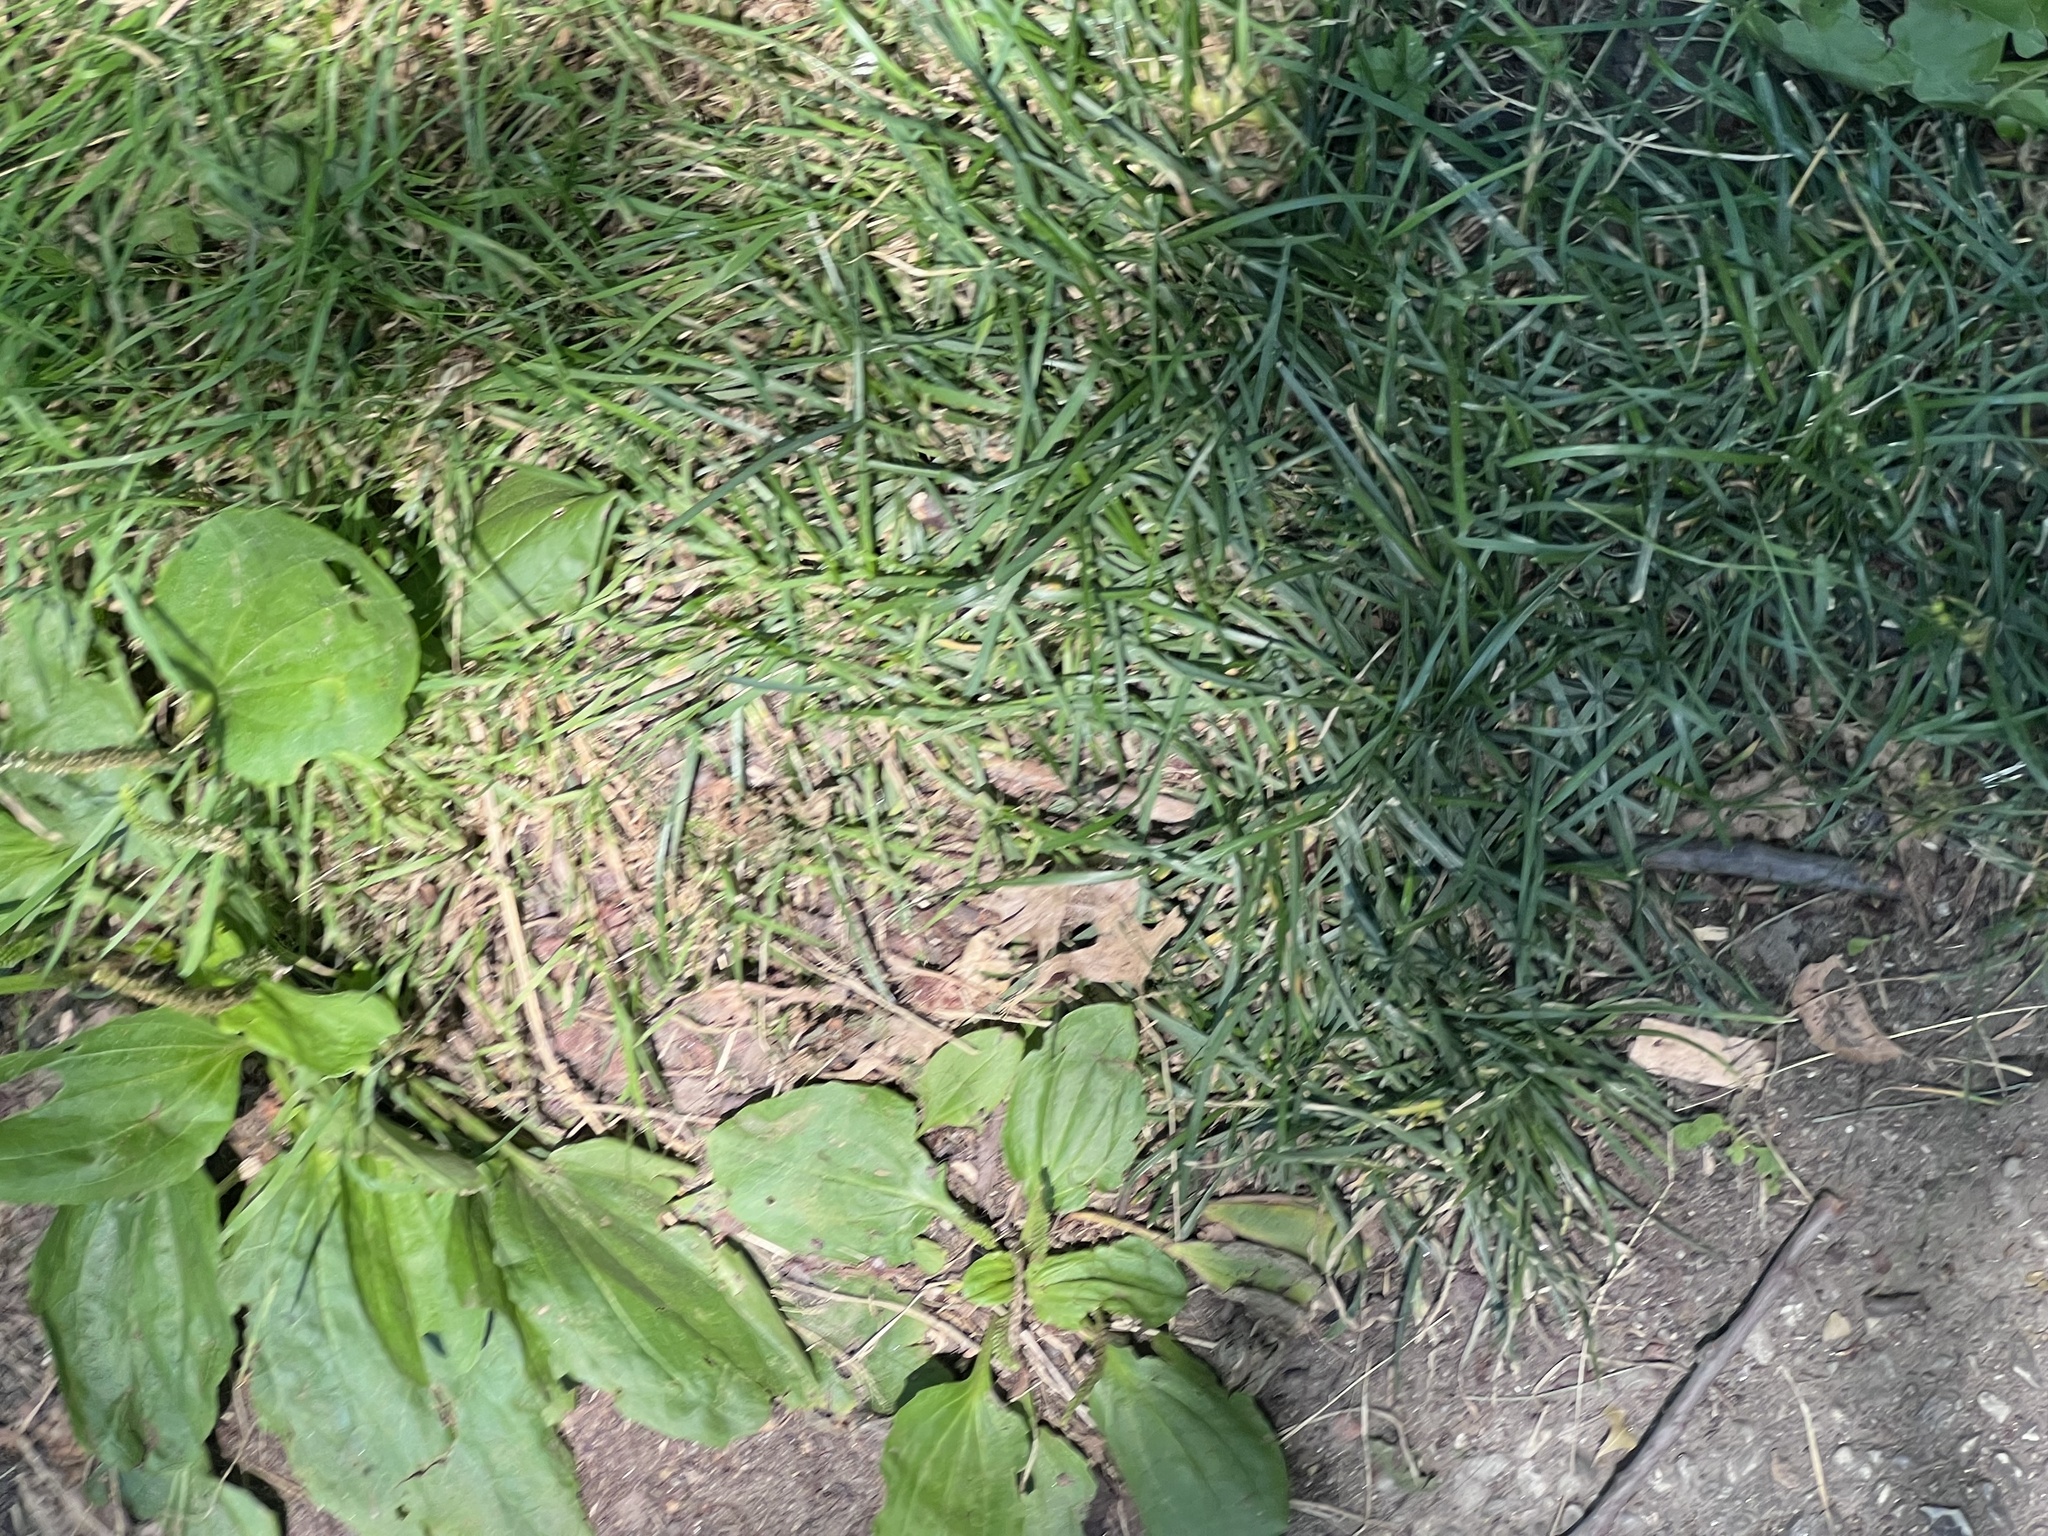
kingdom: Plantae
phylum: Tracheophyta
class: Magnoliopsida
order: Lamiales
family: Plantaginaceae
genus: Plantago
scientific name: Plantago rugelii
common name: American plantain
